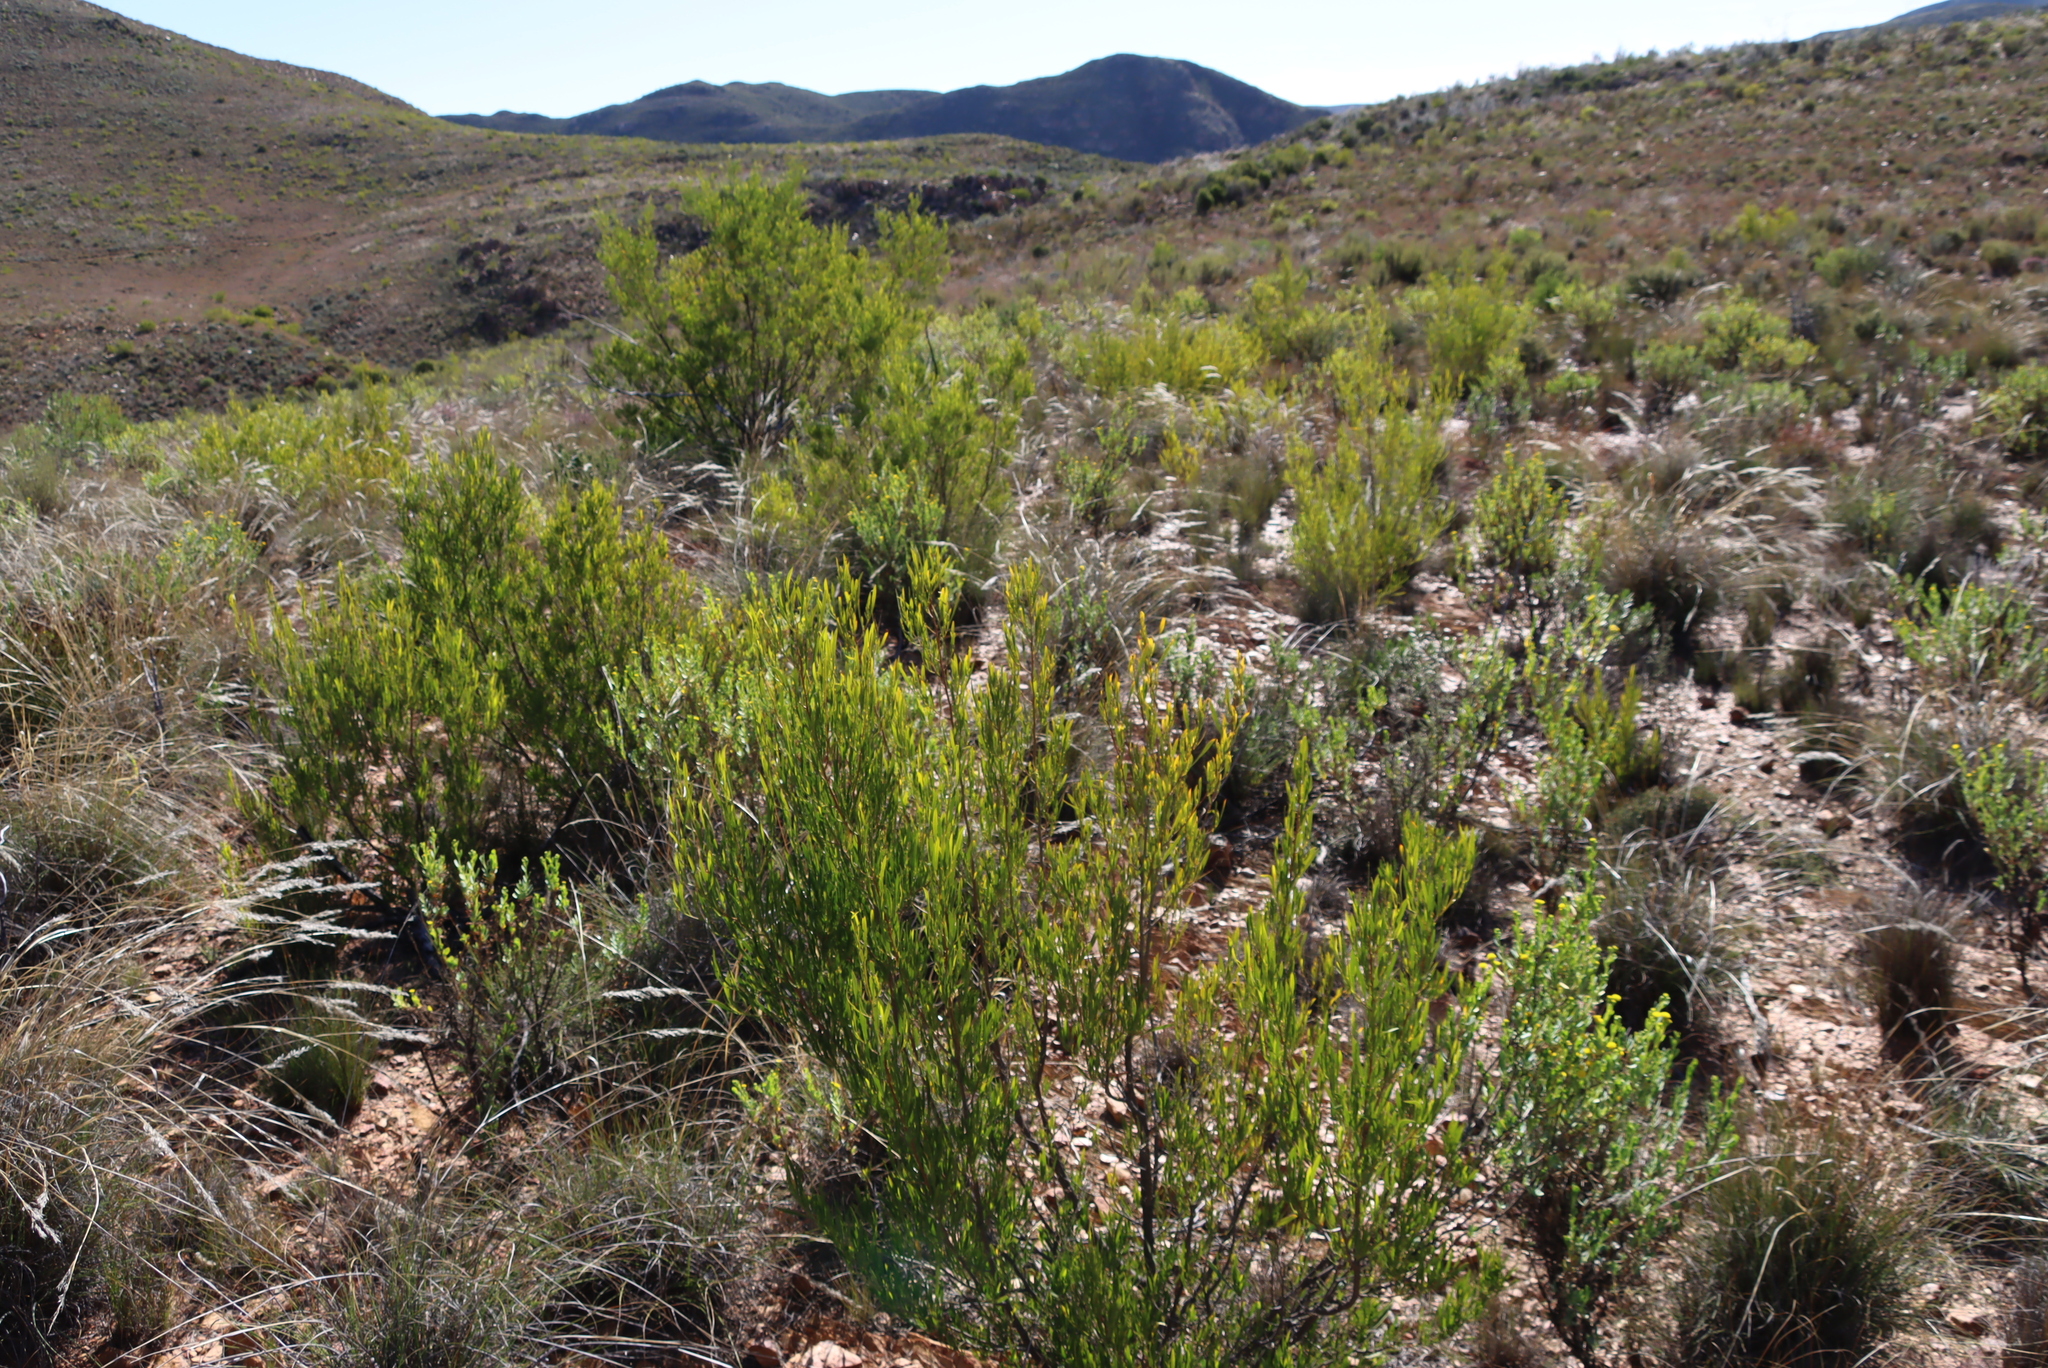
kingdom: Plantae
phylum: Tracheophyta
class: Magnoliopsida
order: Sapindales
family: Sapindaceae
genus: Dodonaea
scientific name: Dodonaea viscosa
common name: Hopbush
